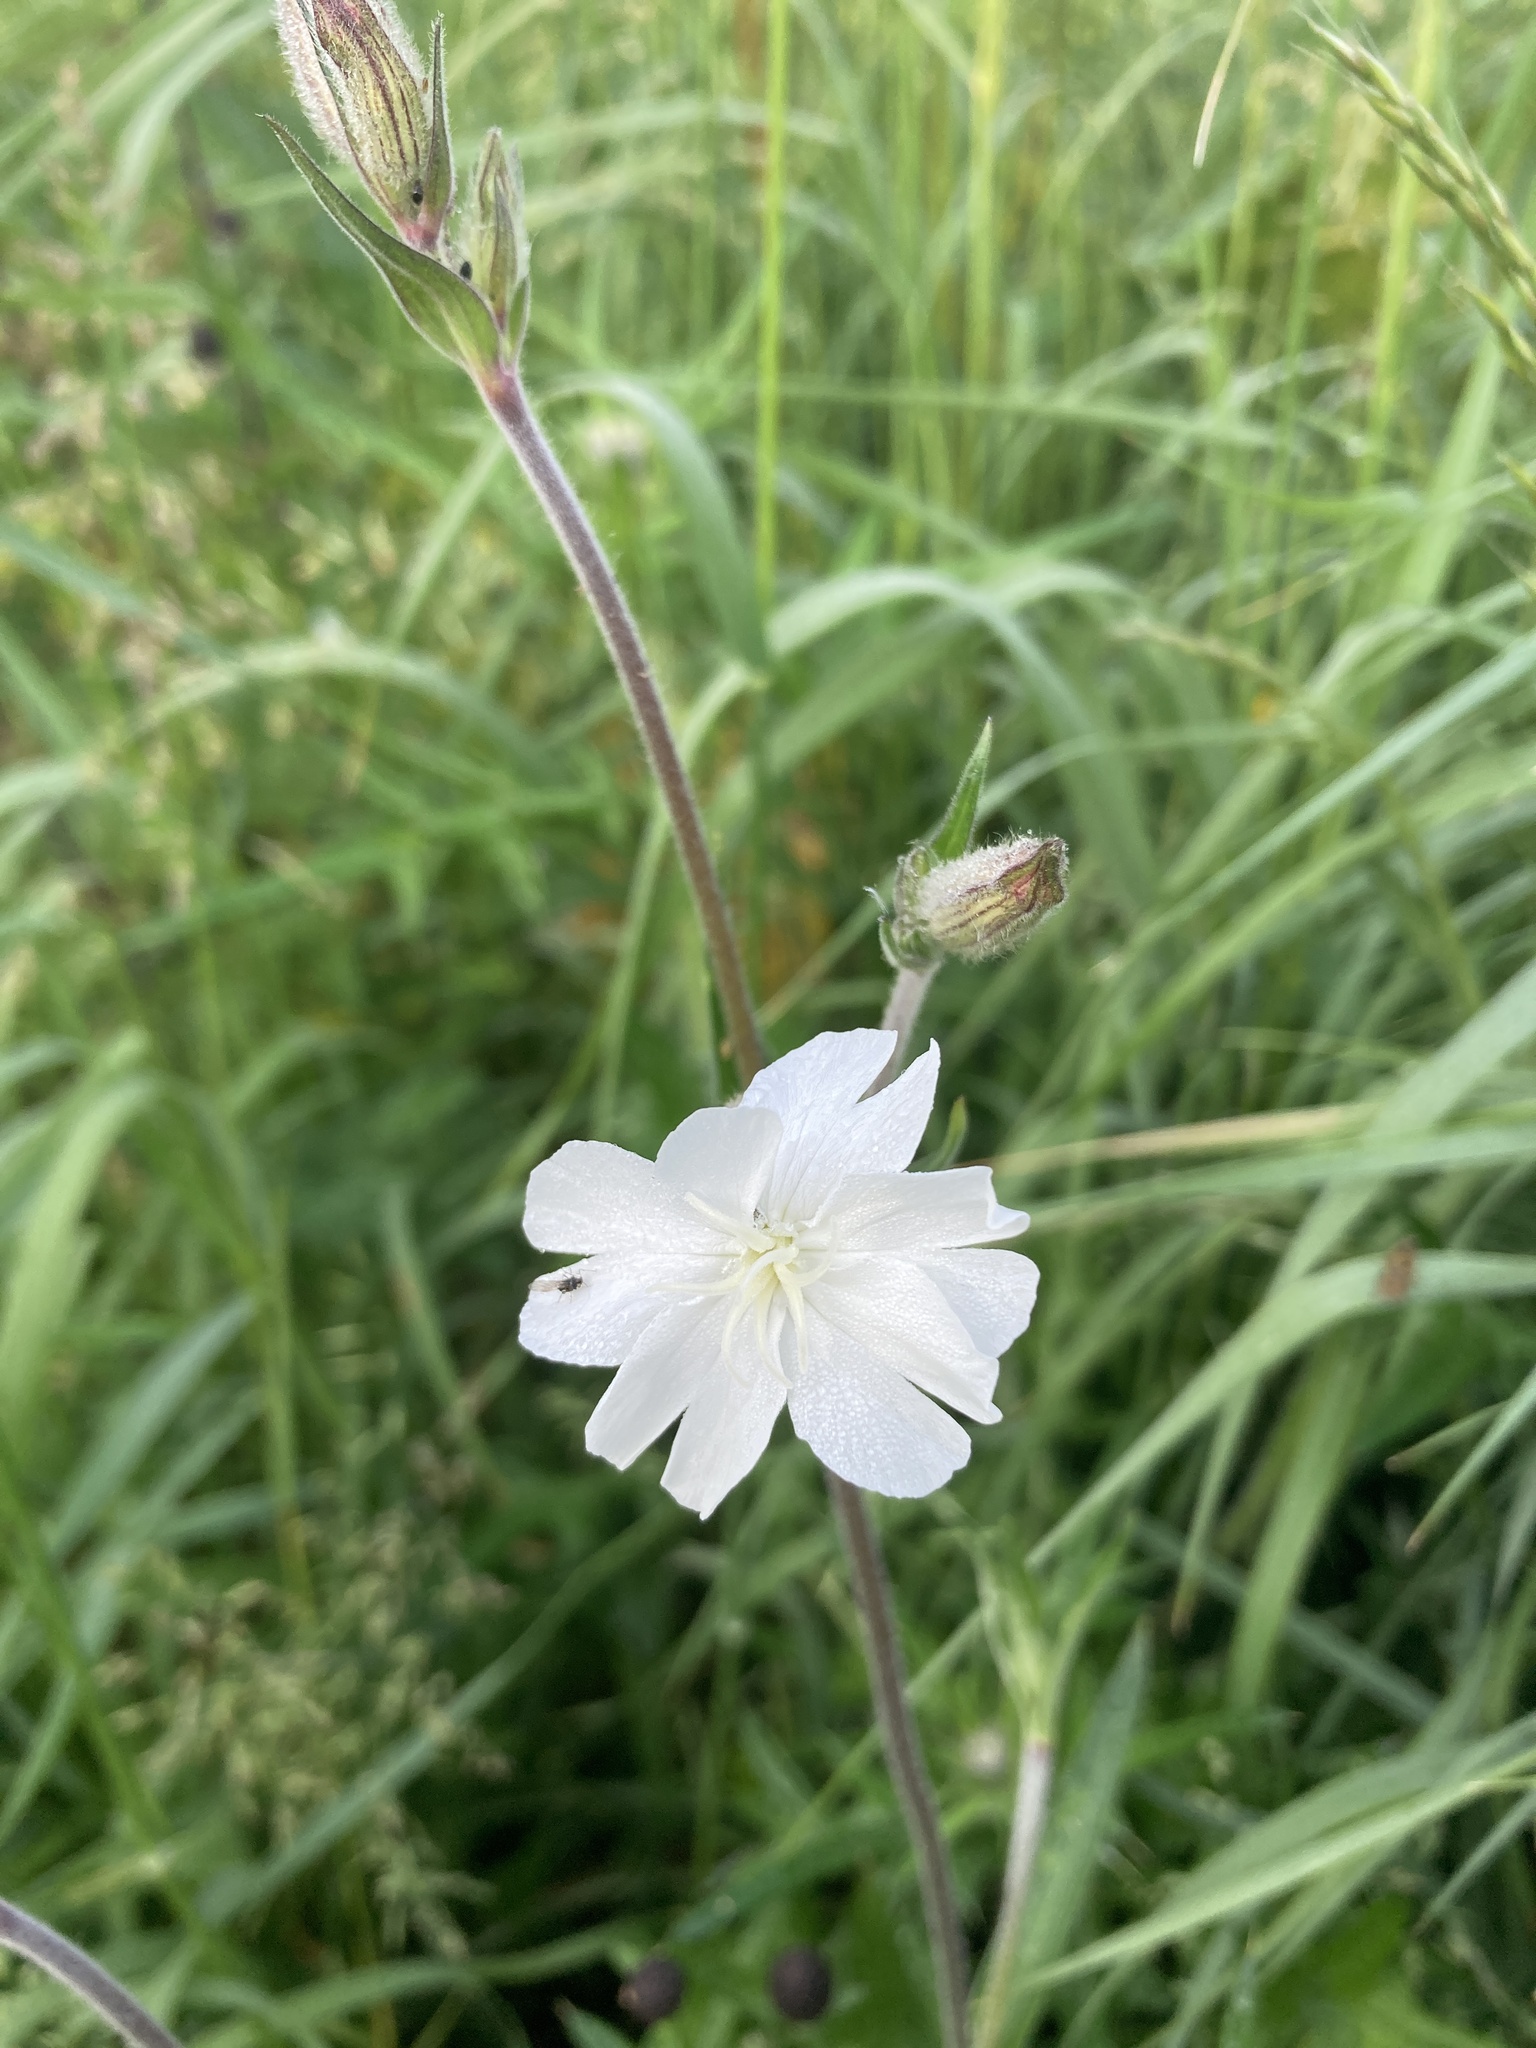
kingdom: Plantae
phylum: Tracheophyta
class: Magnoliopsida
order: Caryophyllales
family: Caryophyllaceae
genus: Silene
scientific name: Silene latifolia
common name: White campion
